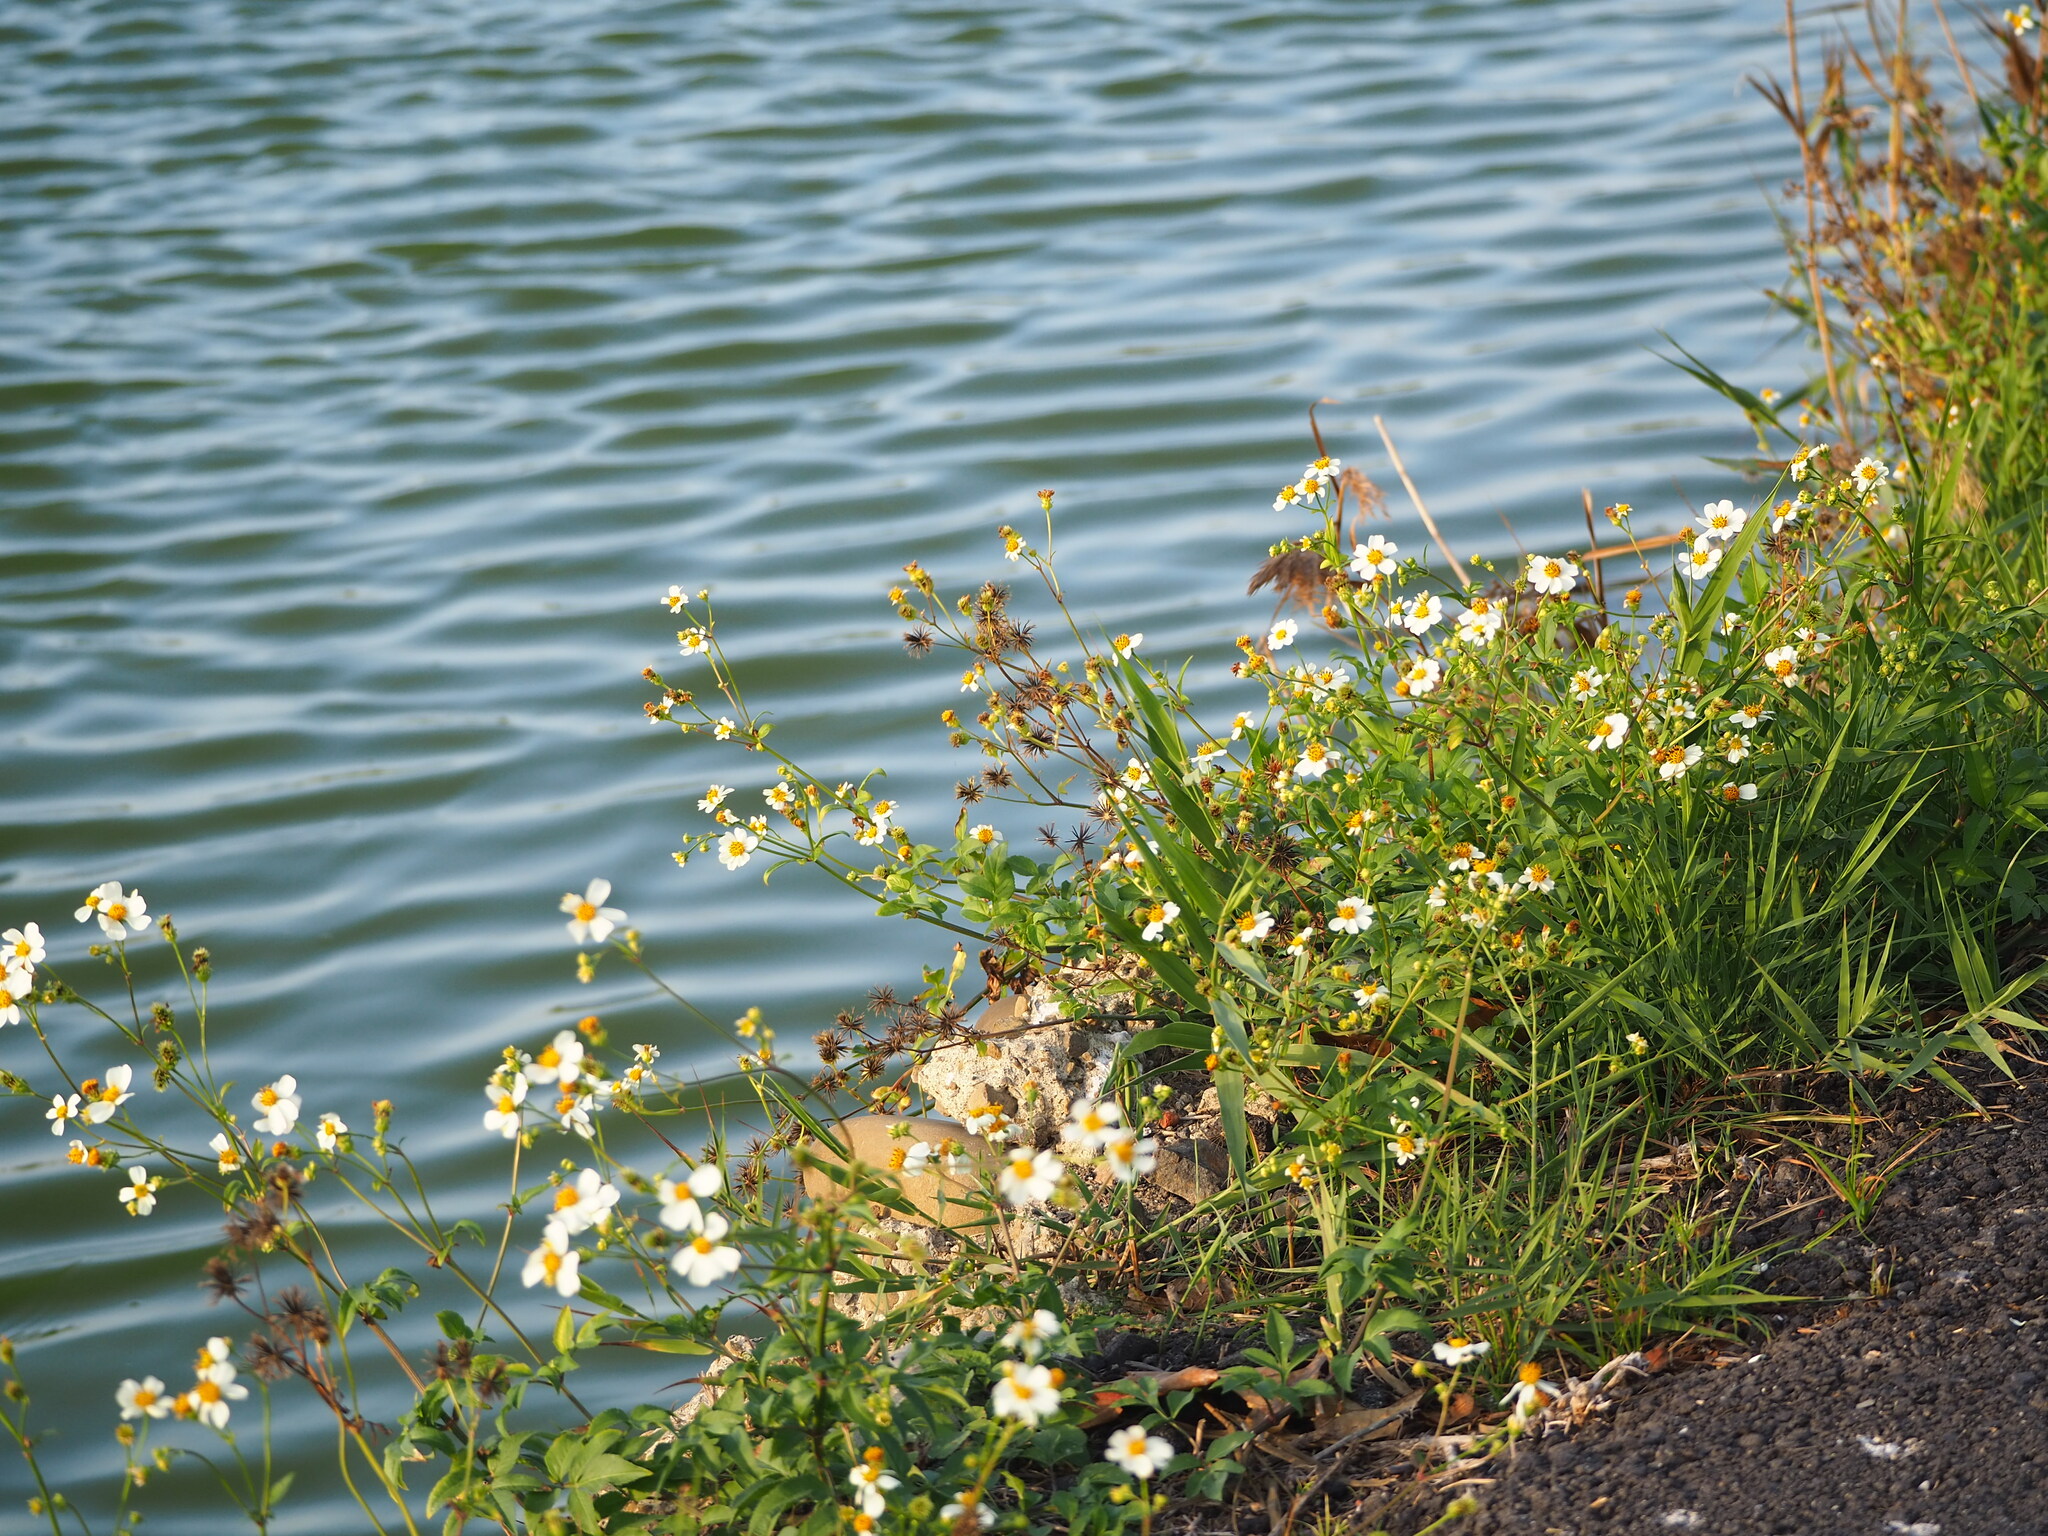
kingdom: Plantae
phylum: Tracheophyta
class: Magnoliopsida
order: Asterales
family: Asteraceae
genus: Bidens
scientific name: Bidens alba
